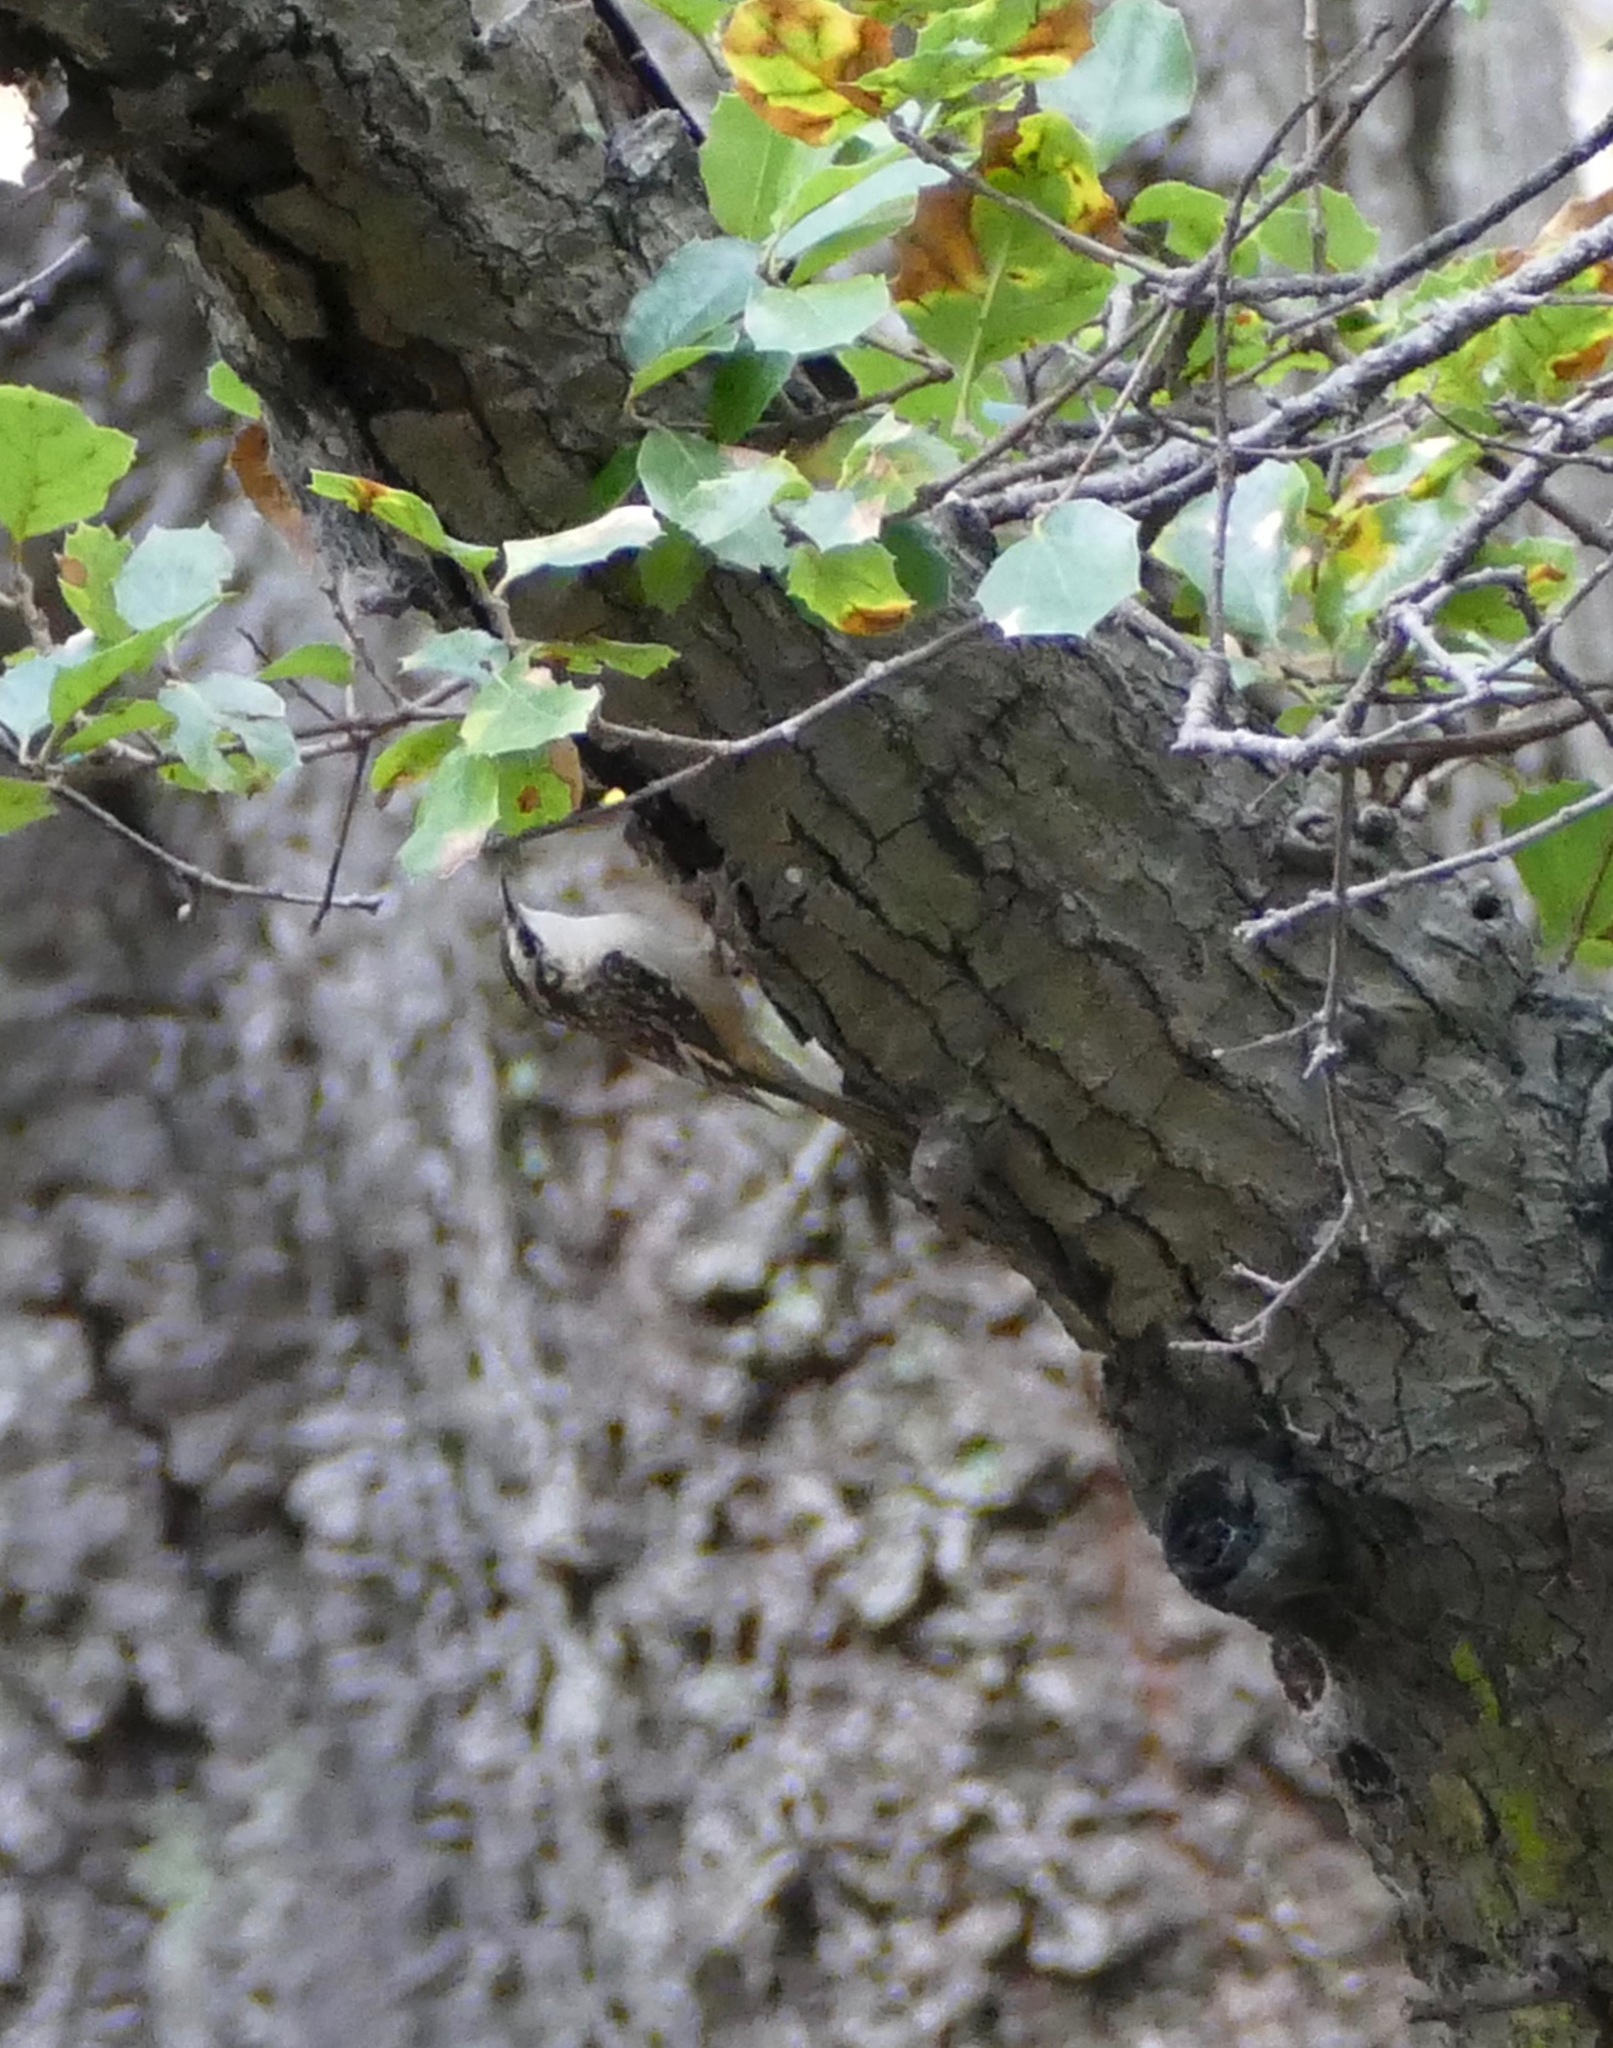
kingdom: Animalia
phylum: Chordata
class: Aves
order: Passeriformes
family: Certhiidae
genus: Certhia
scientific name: Certhia americana
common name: Brown creeper
